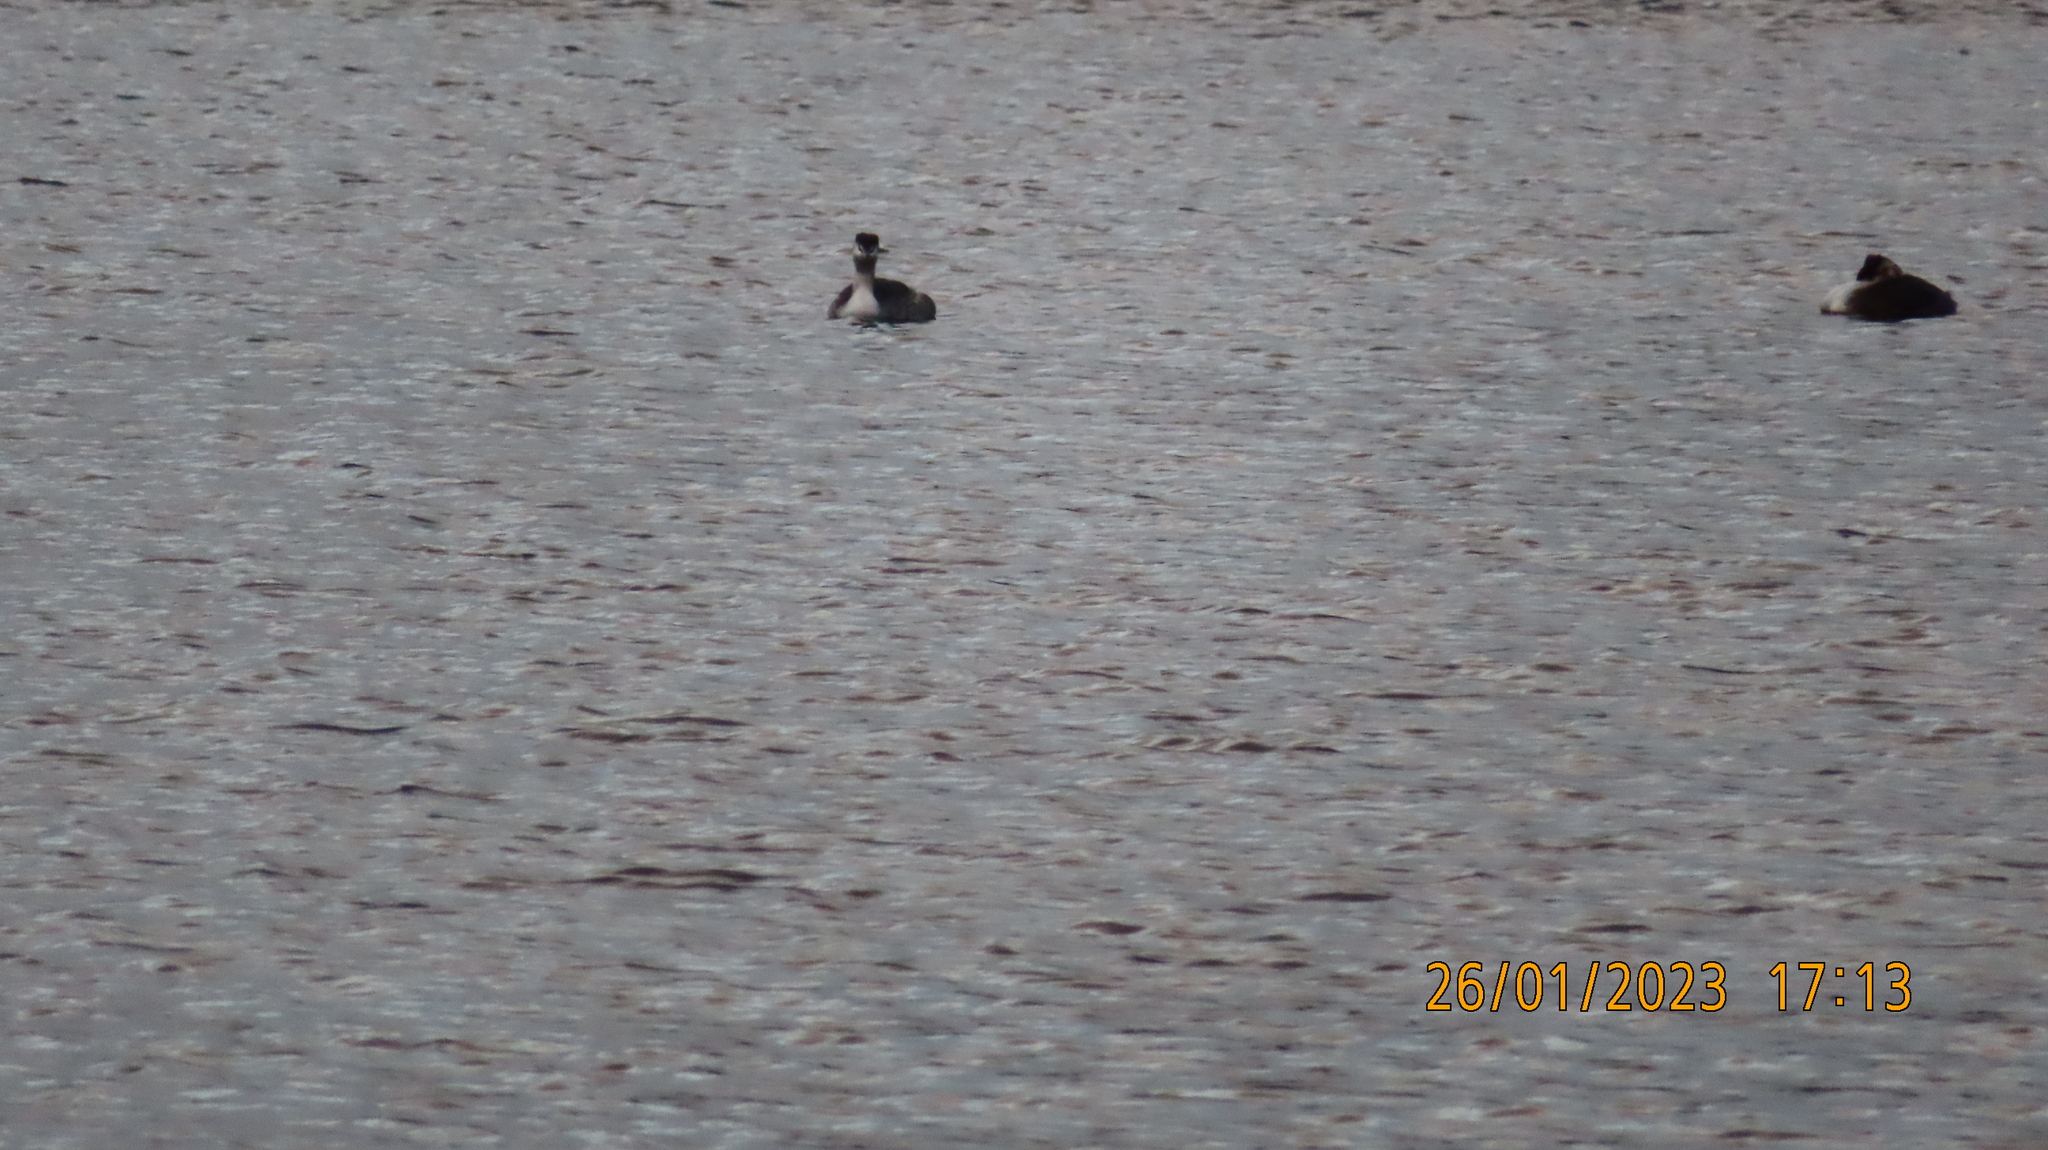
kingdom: Animalia
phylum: Chordata
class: Aves
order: Podicipediformes
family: Podicipedidae
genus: Podiceps
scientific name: Podiceps cristatus
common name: Great crested grebe
